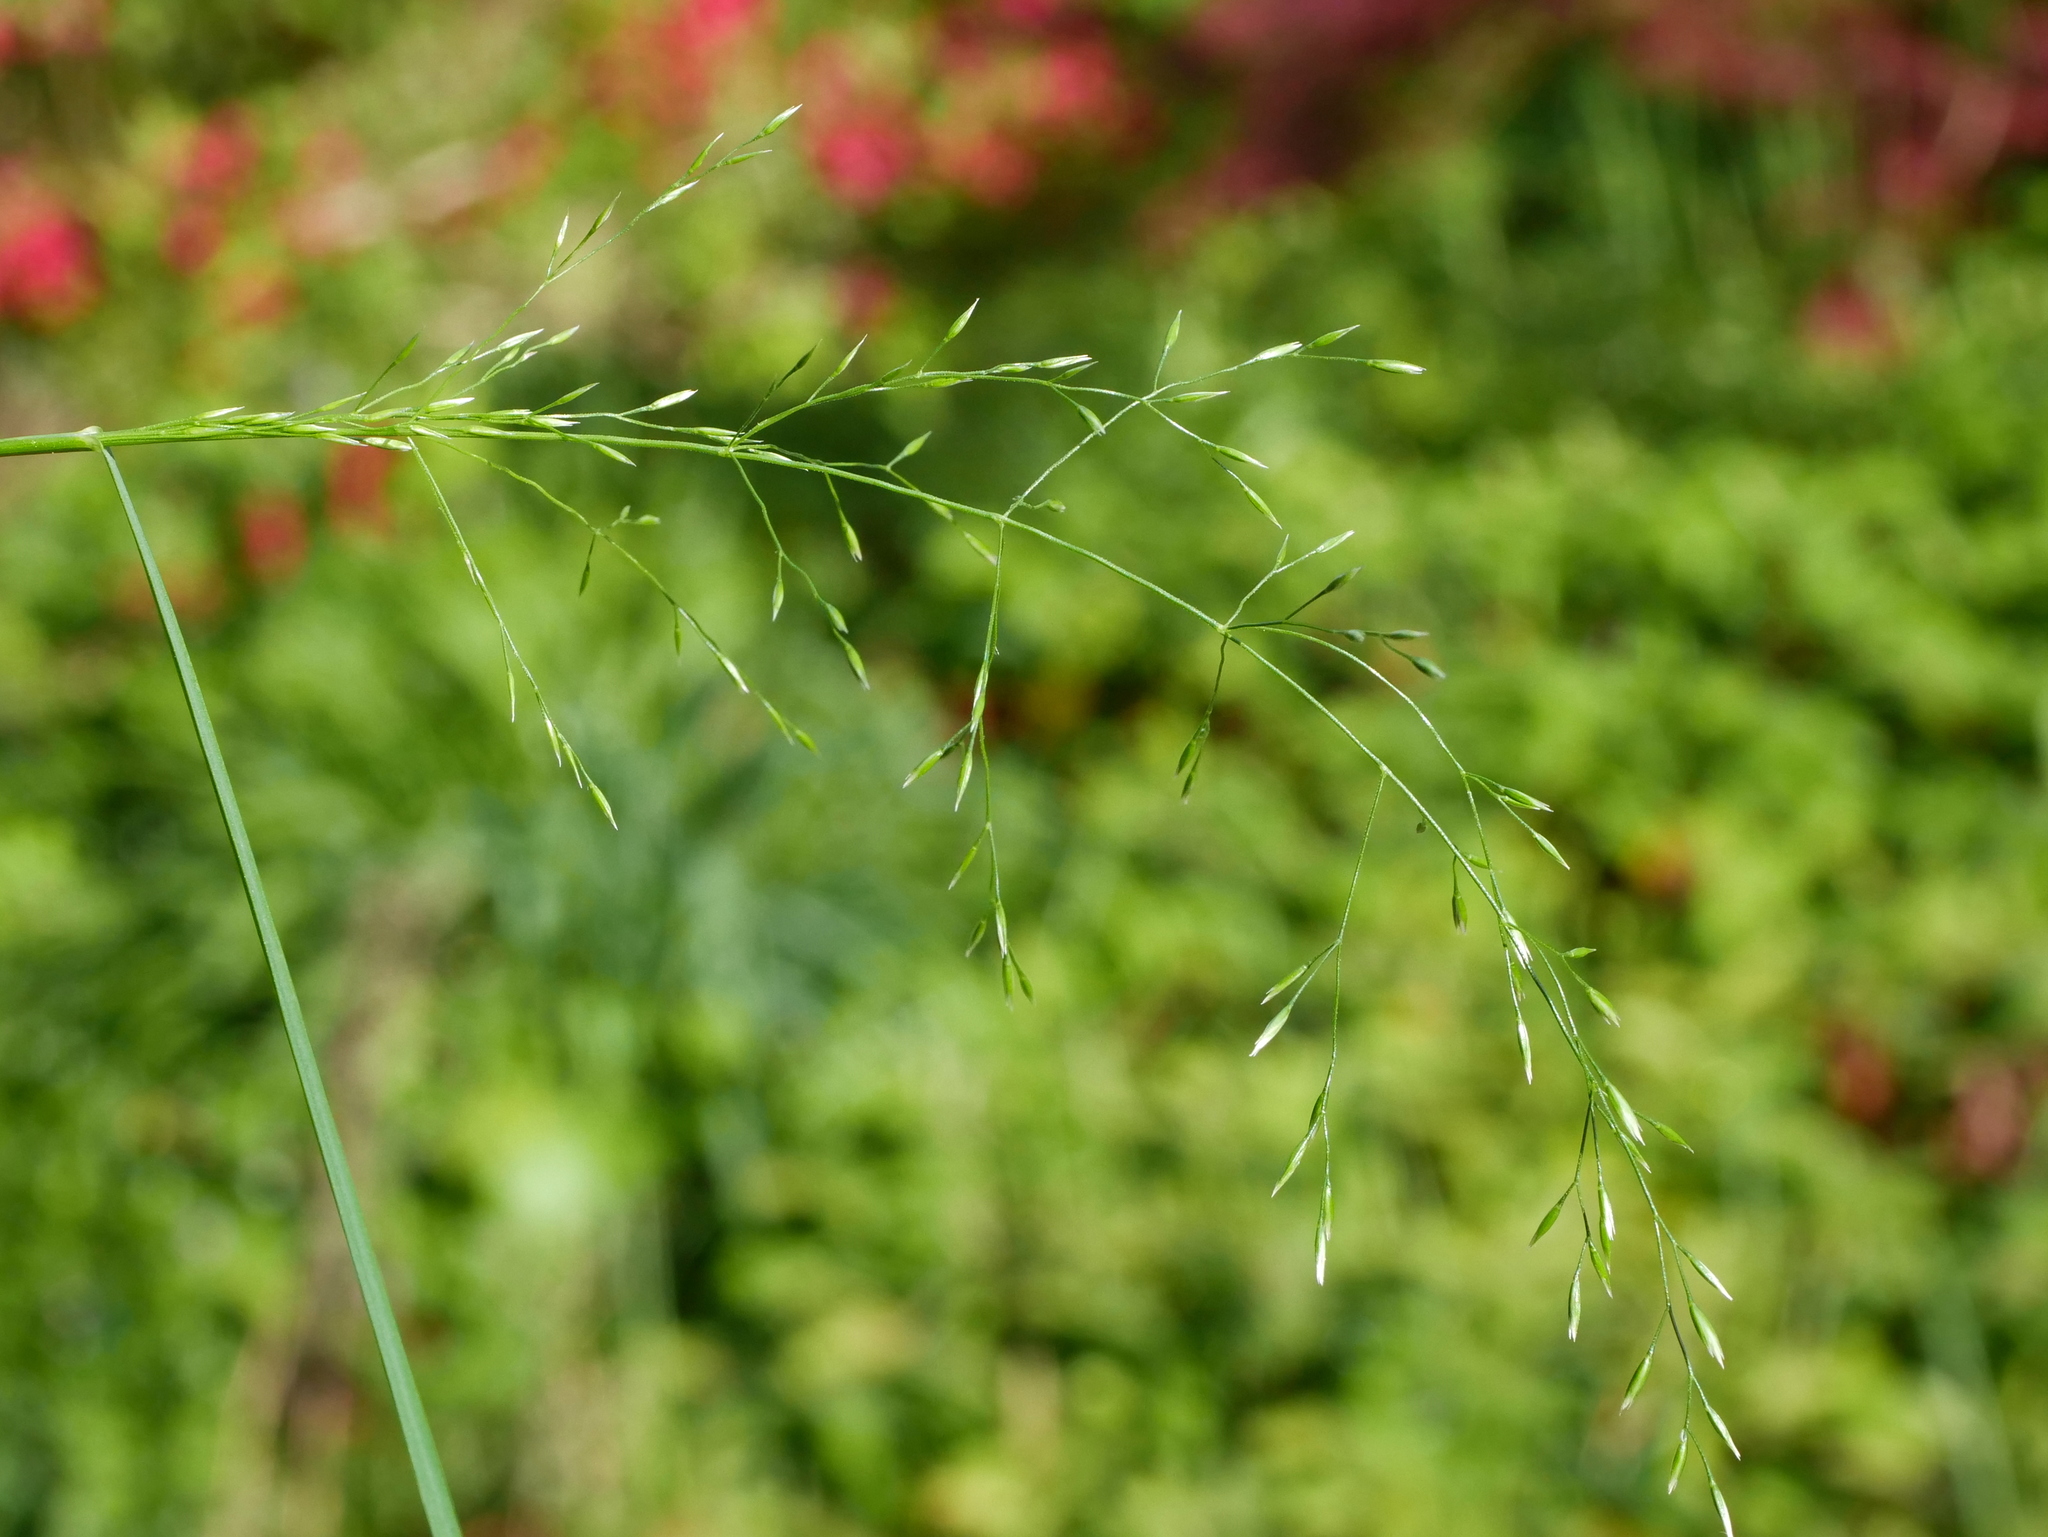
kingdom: Plantae
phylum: Tracheophyta
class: Liliopsida
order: Poales
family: Poaceae
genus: Poa
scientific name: Poa nemoralis
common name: Wood bluegrass
